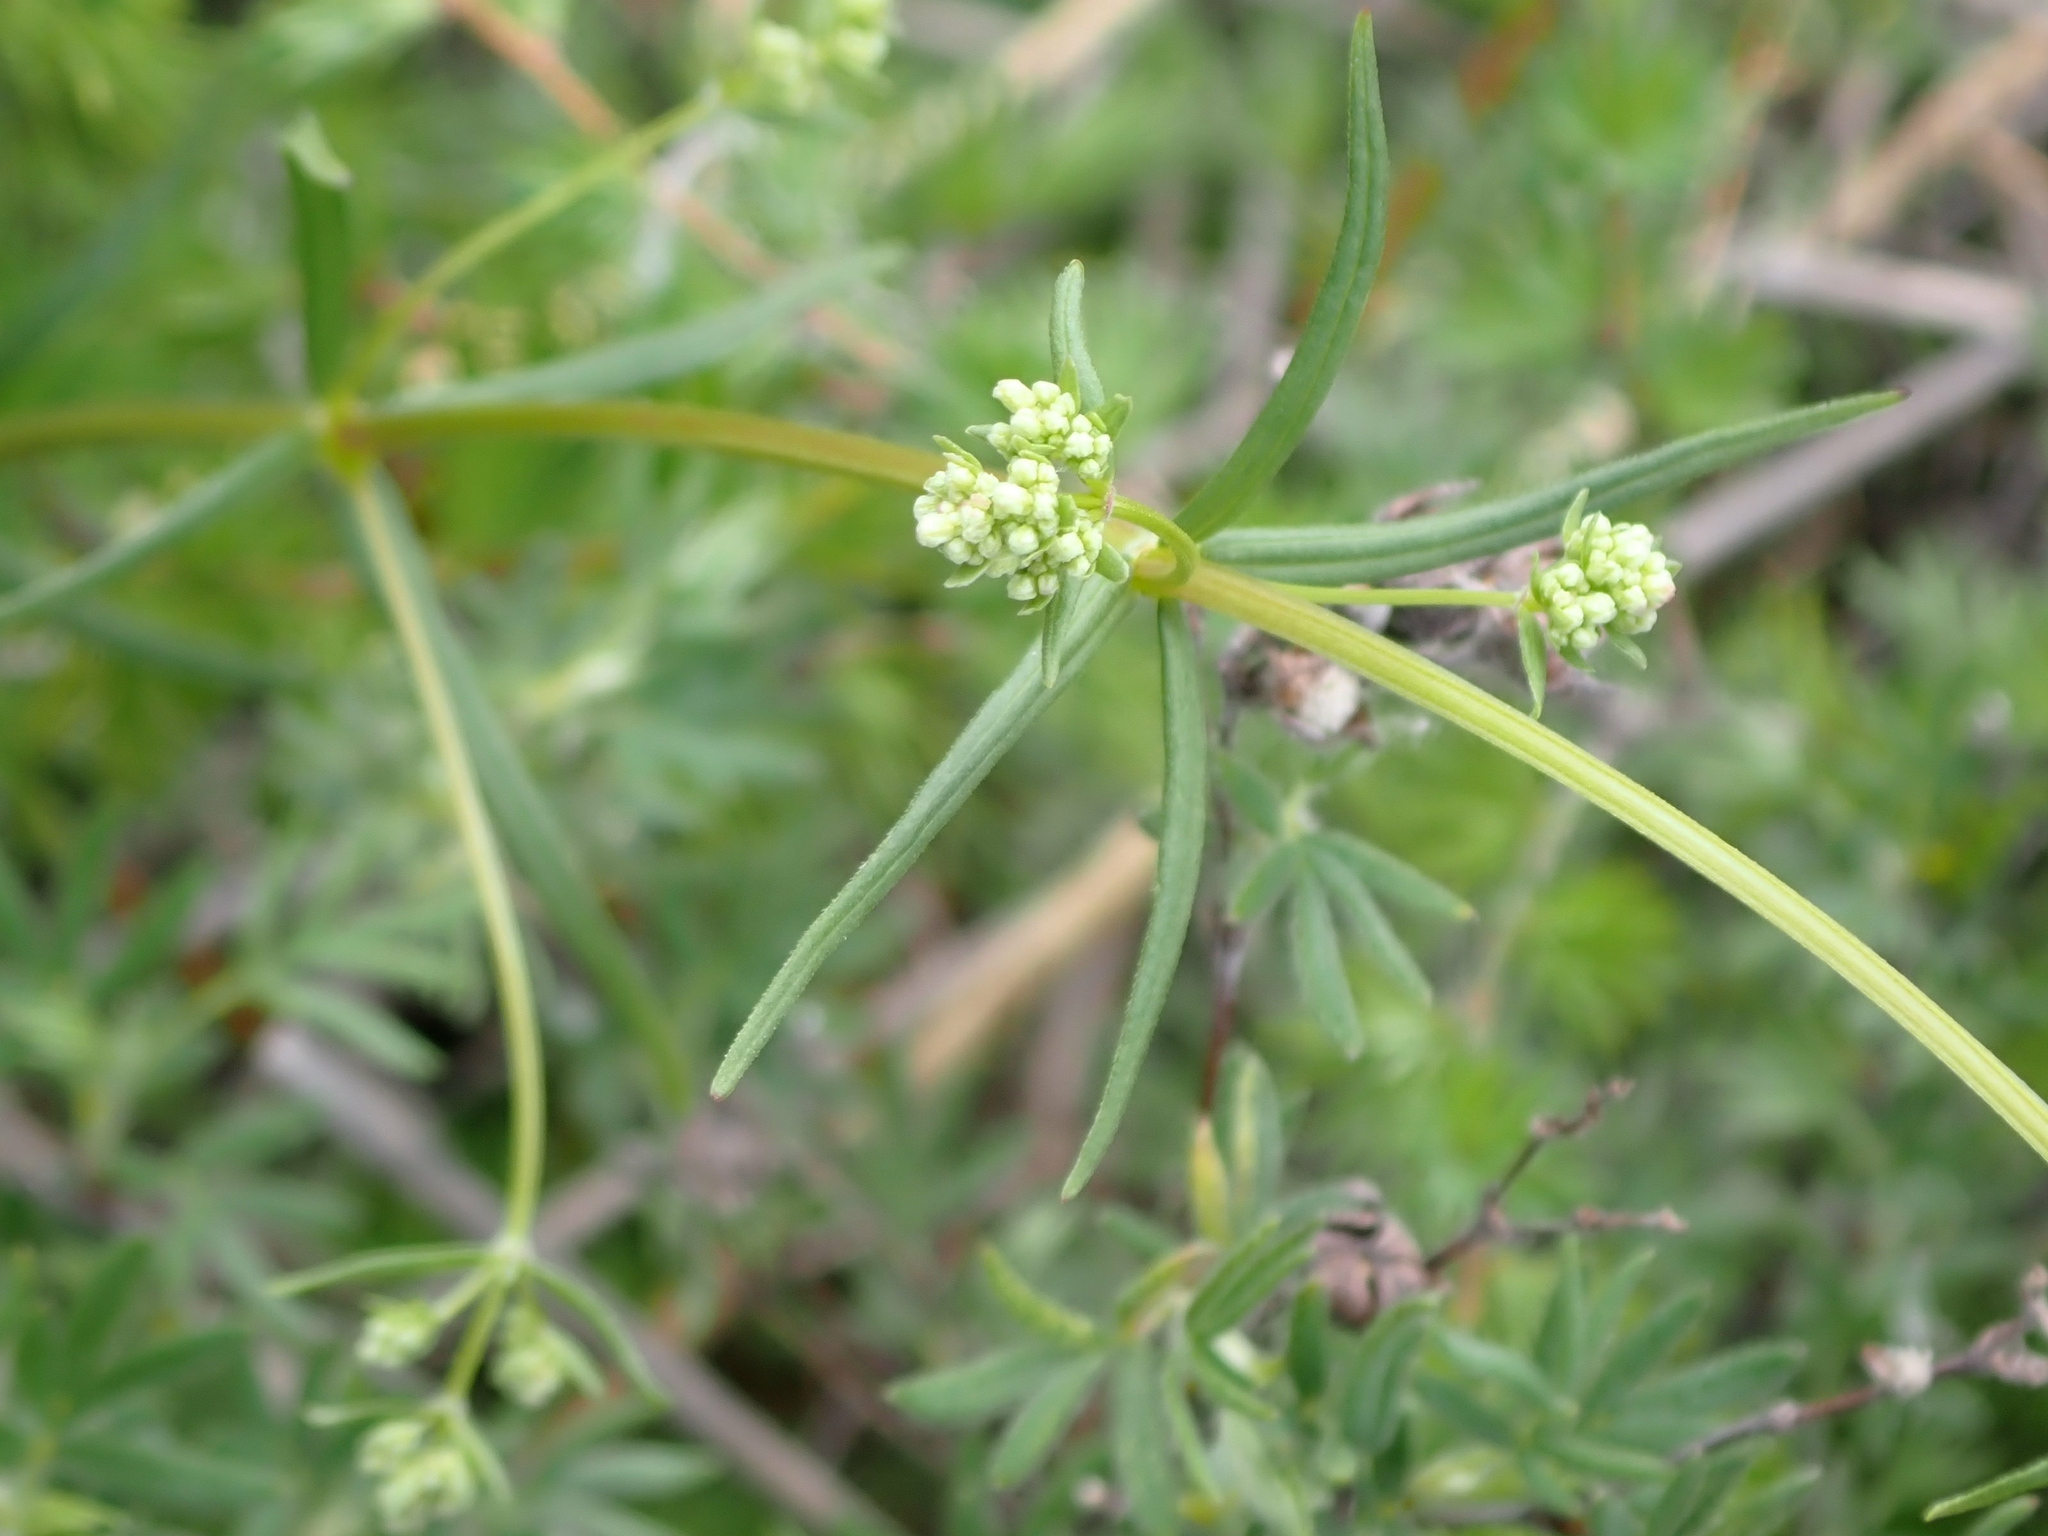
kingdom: Plantae
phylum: Tracheophyta
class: Magnoliopsida
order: Gentianales
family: Rubiaceae
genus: Galium
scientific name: Galium boreale
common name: Northern bedstraw
